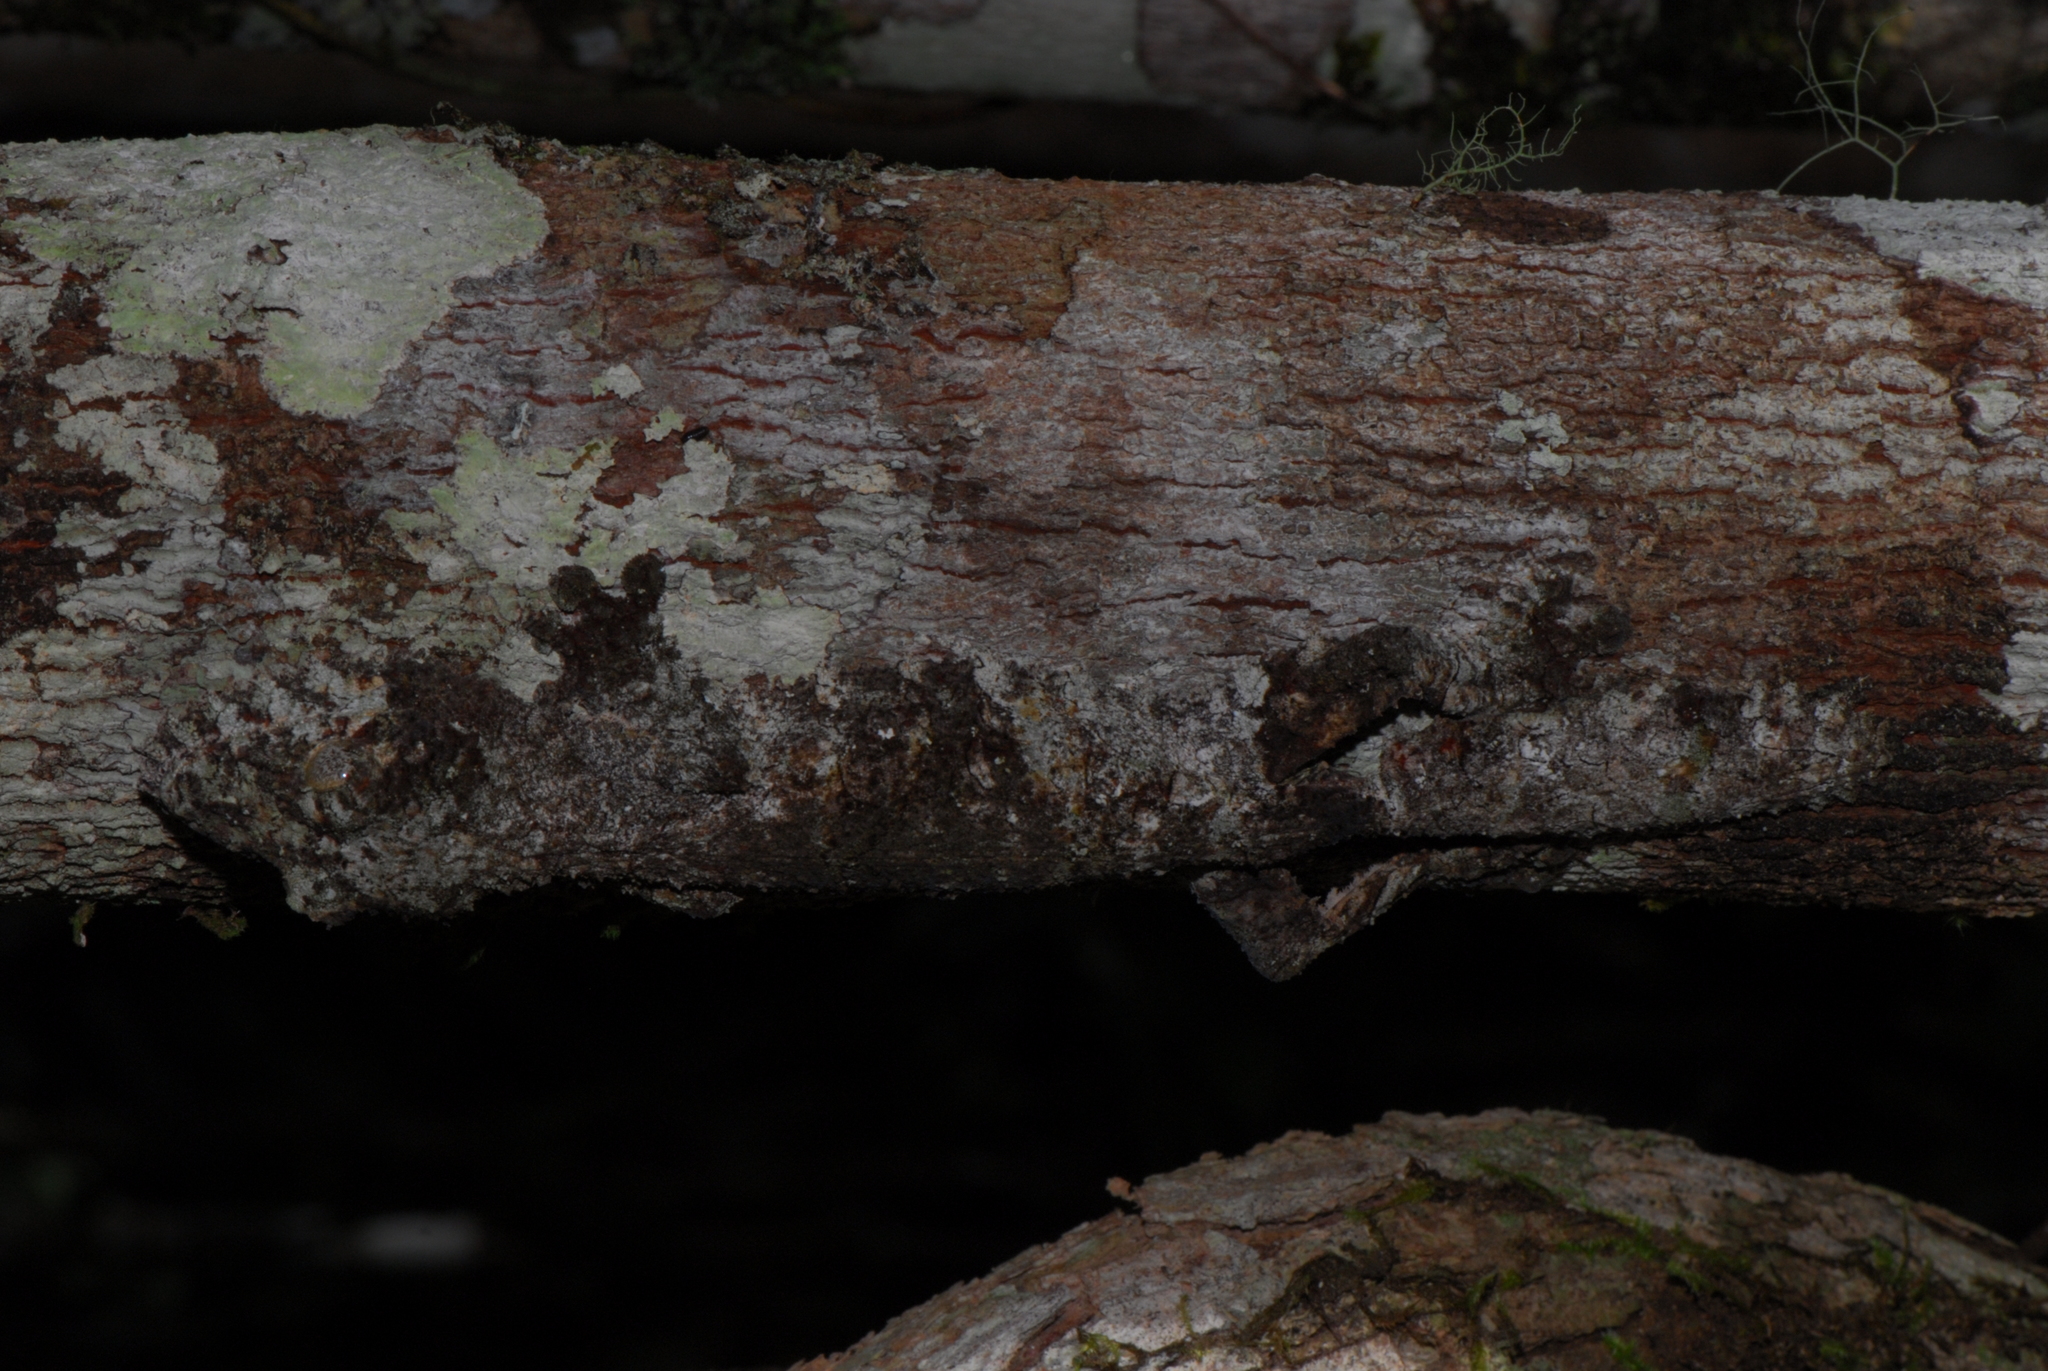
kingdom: Animalia
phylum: Chordata
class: Squamata
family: Gekkonidae
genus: Uroplatus
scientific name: Uroplatus sikorae
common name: Southern flat-tail gecko
